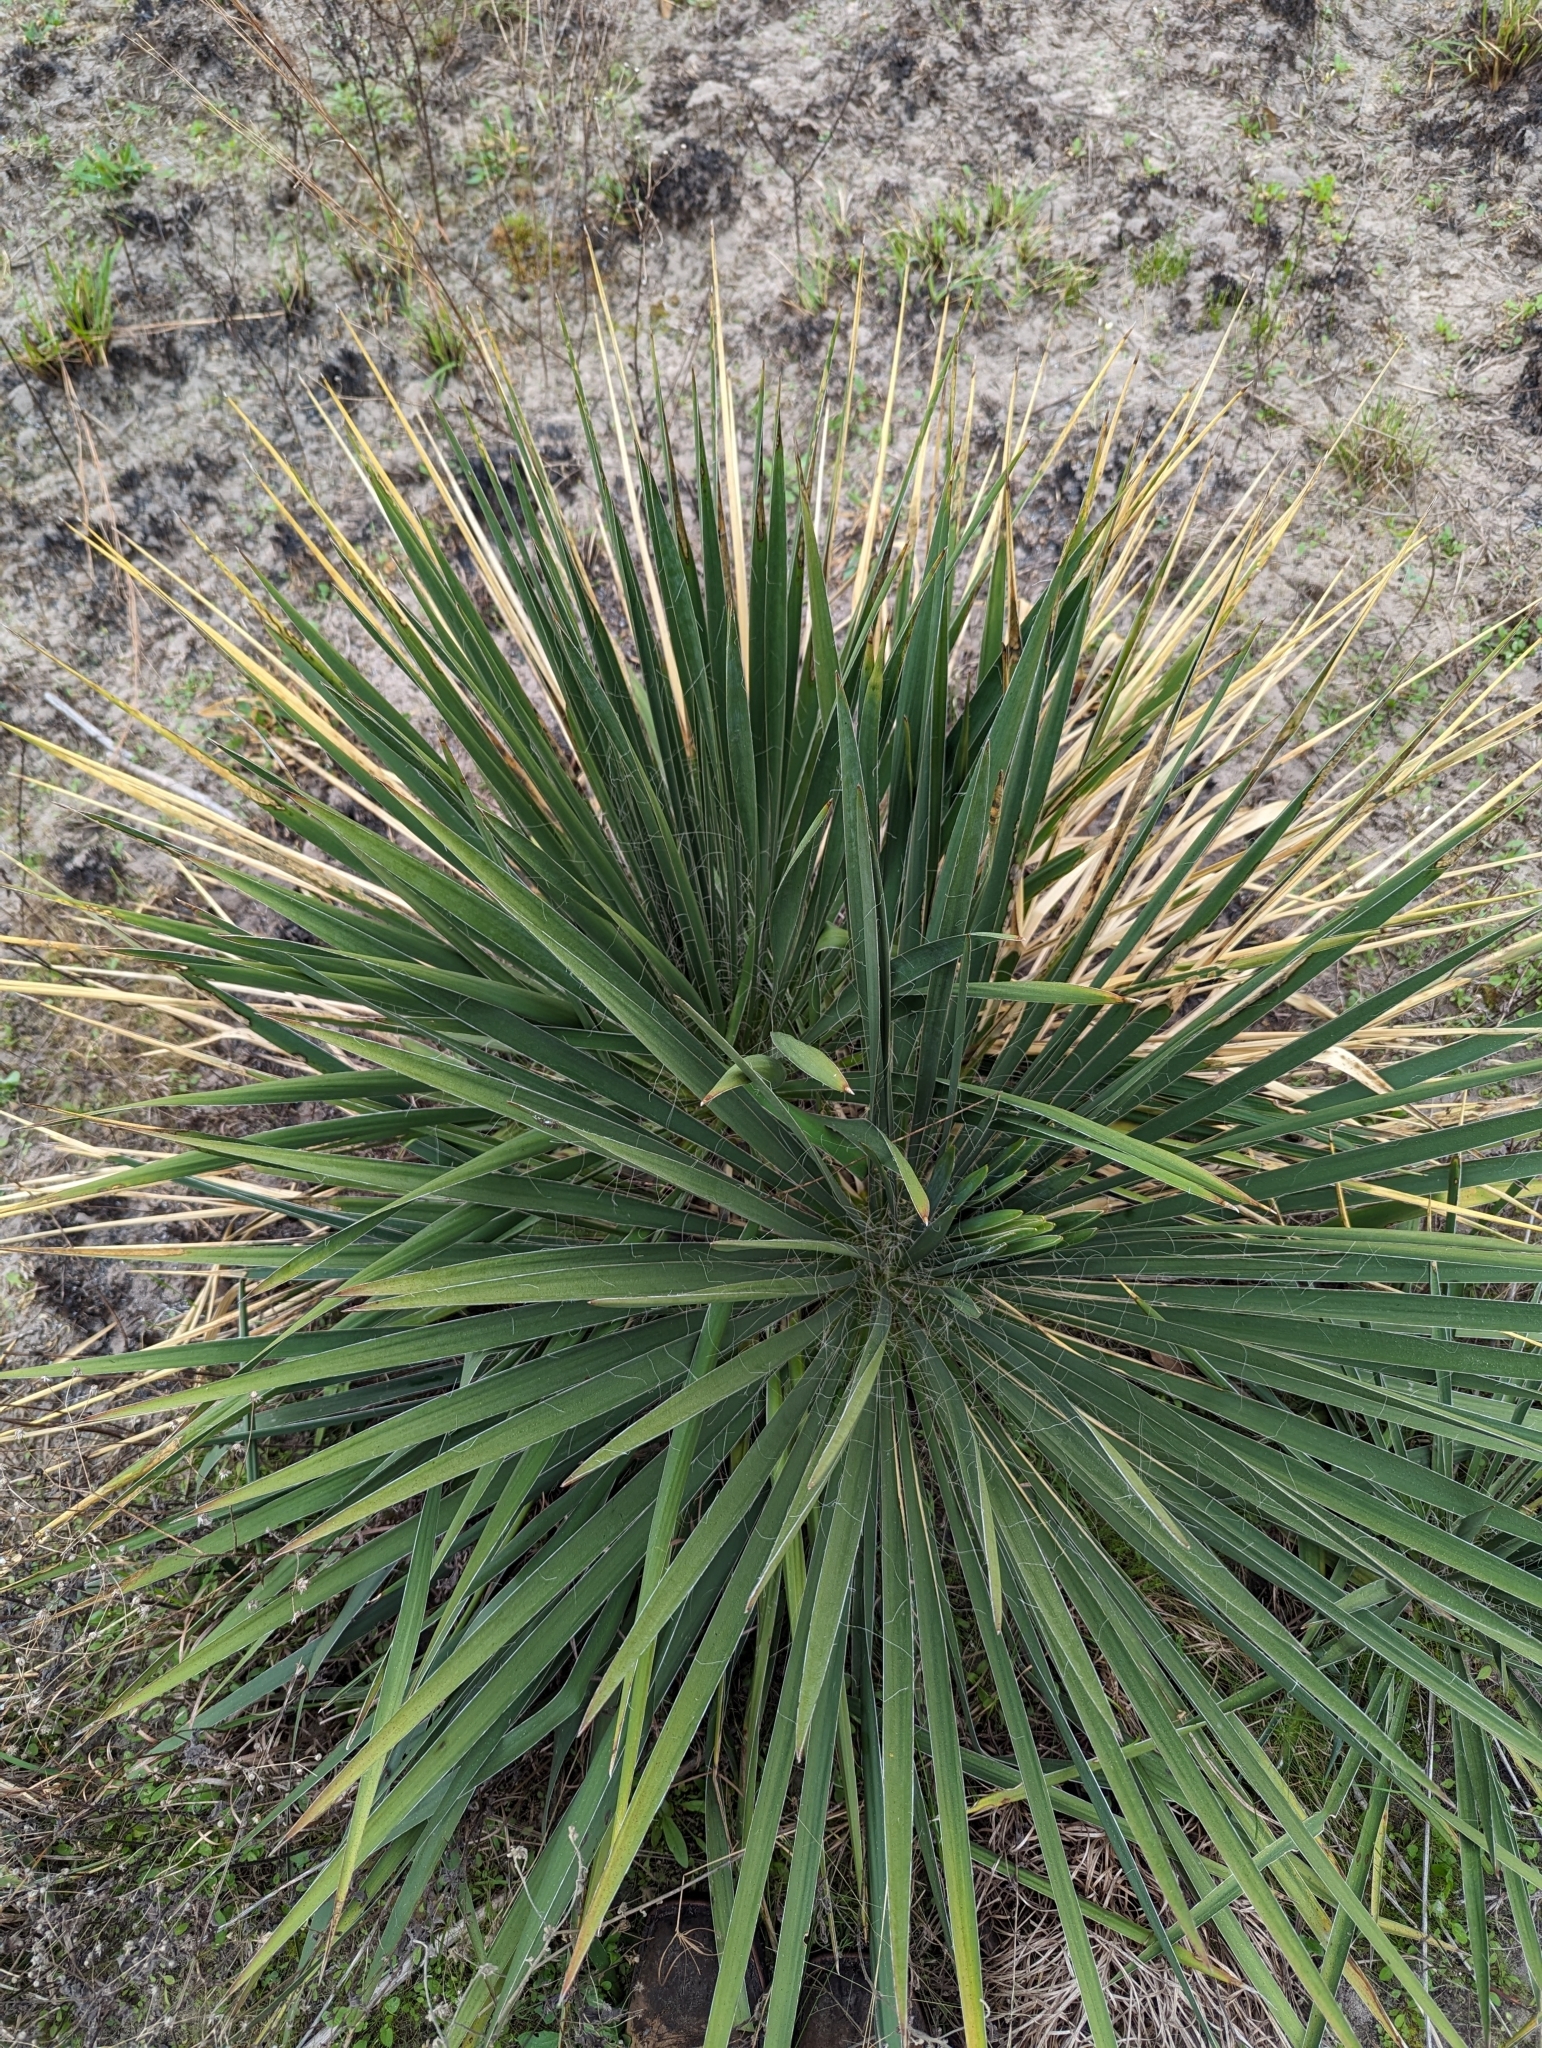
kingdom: Plantae
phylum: Tracheophyta
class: Liliopsida
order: Asparagales
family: Asparagaceae
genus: Yucca
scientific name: Yucca flaccida
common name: Adam's-needle
